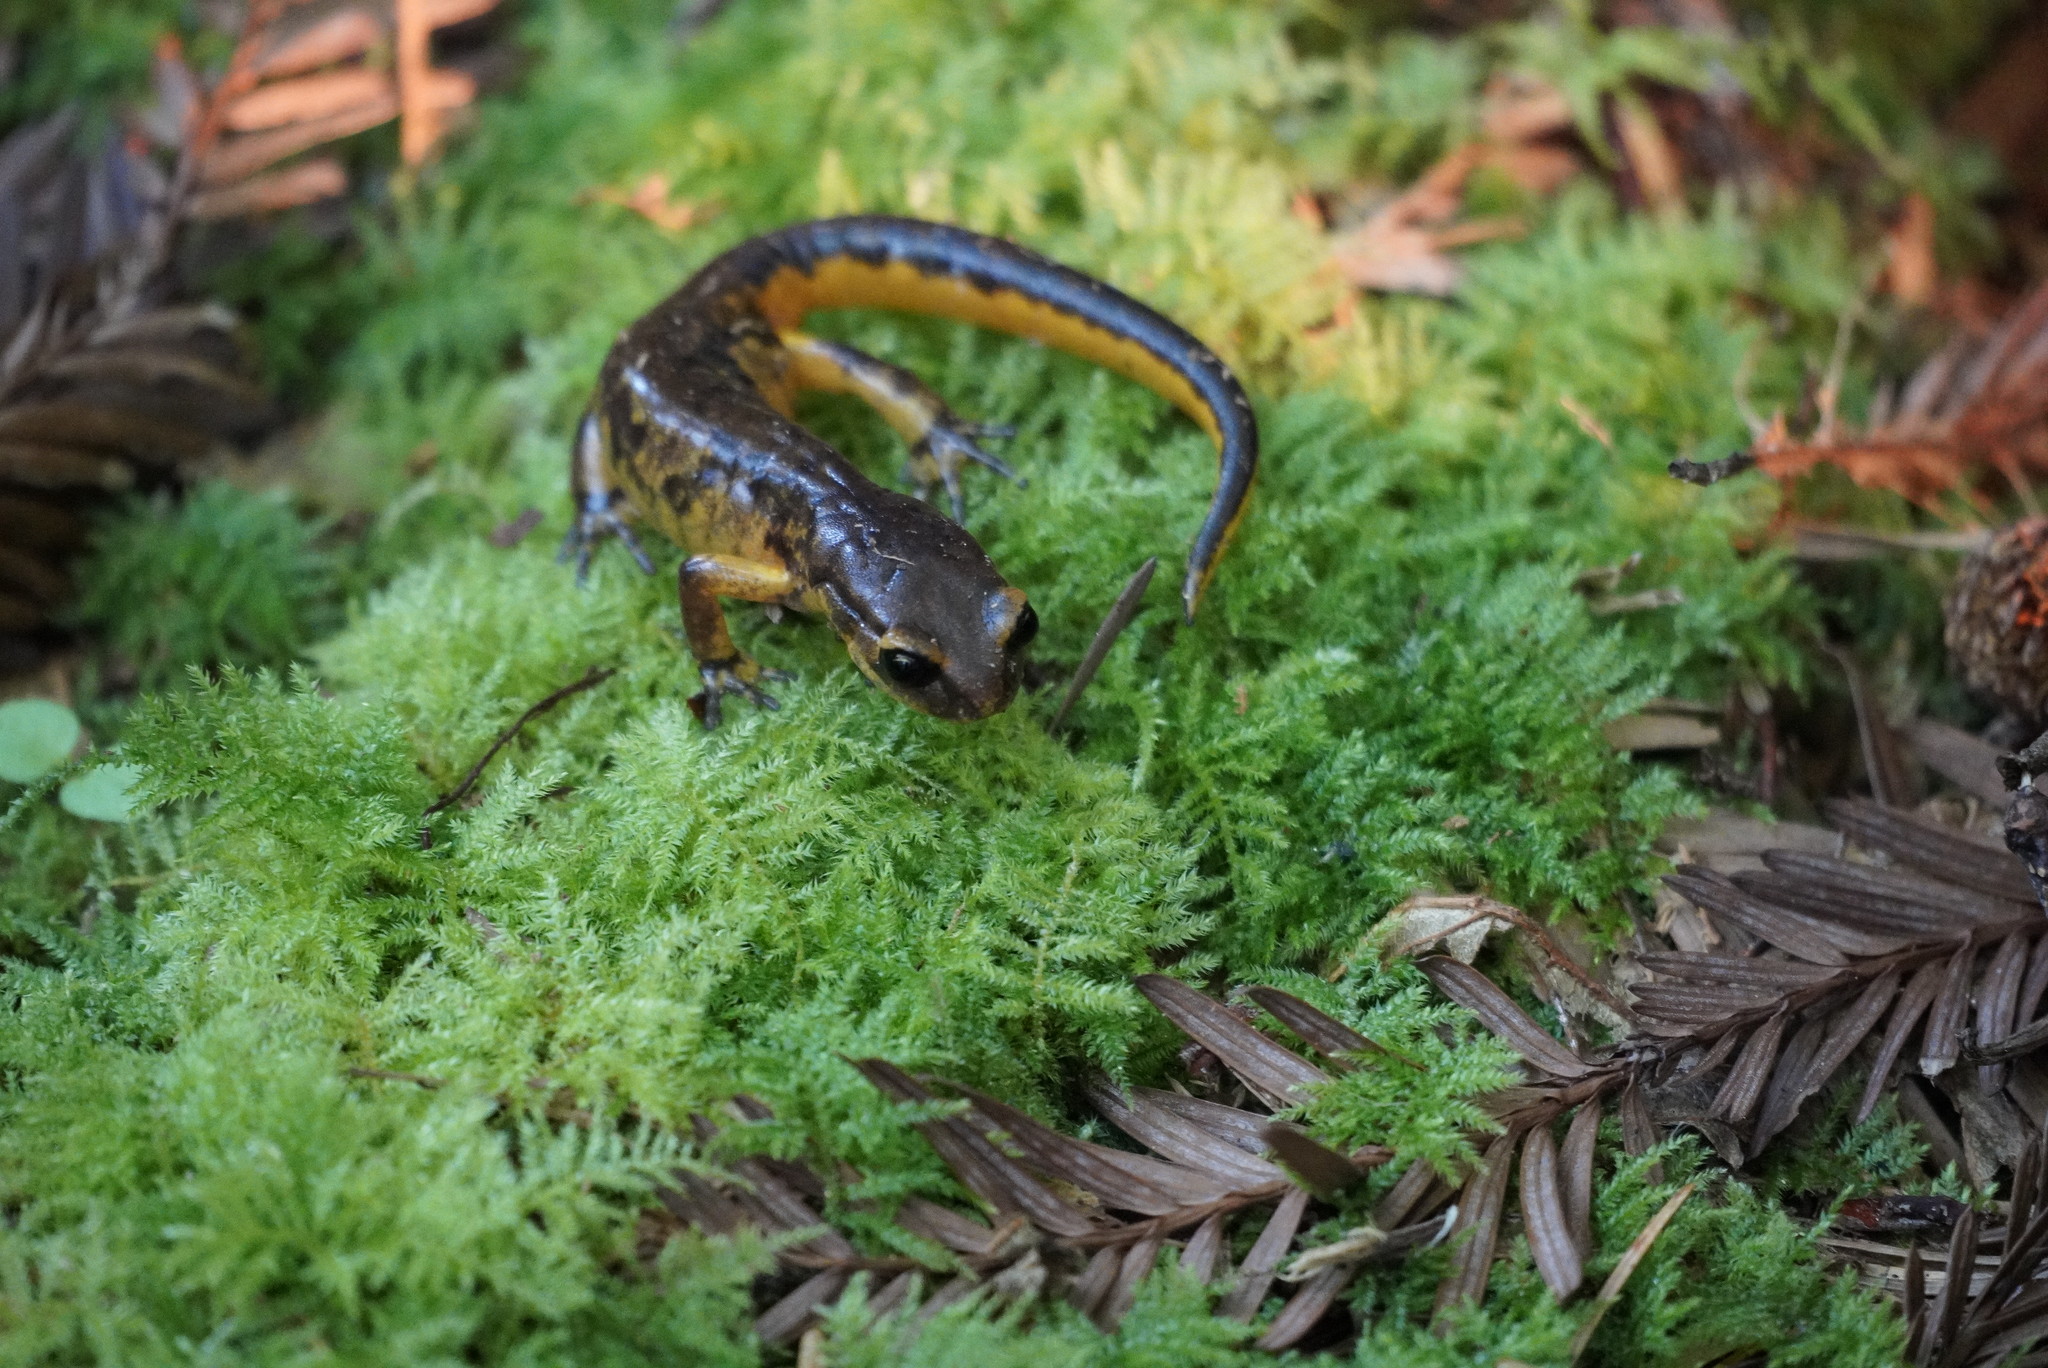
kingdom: Animalia
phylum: Chordata
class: Amphibia
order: Caudata
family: Plethodontidae
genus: Ensatina
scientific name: Ensatina eschscholtzii
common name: Ensatina
